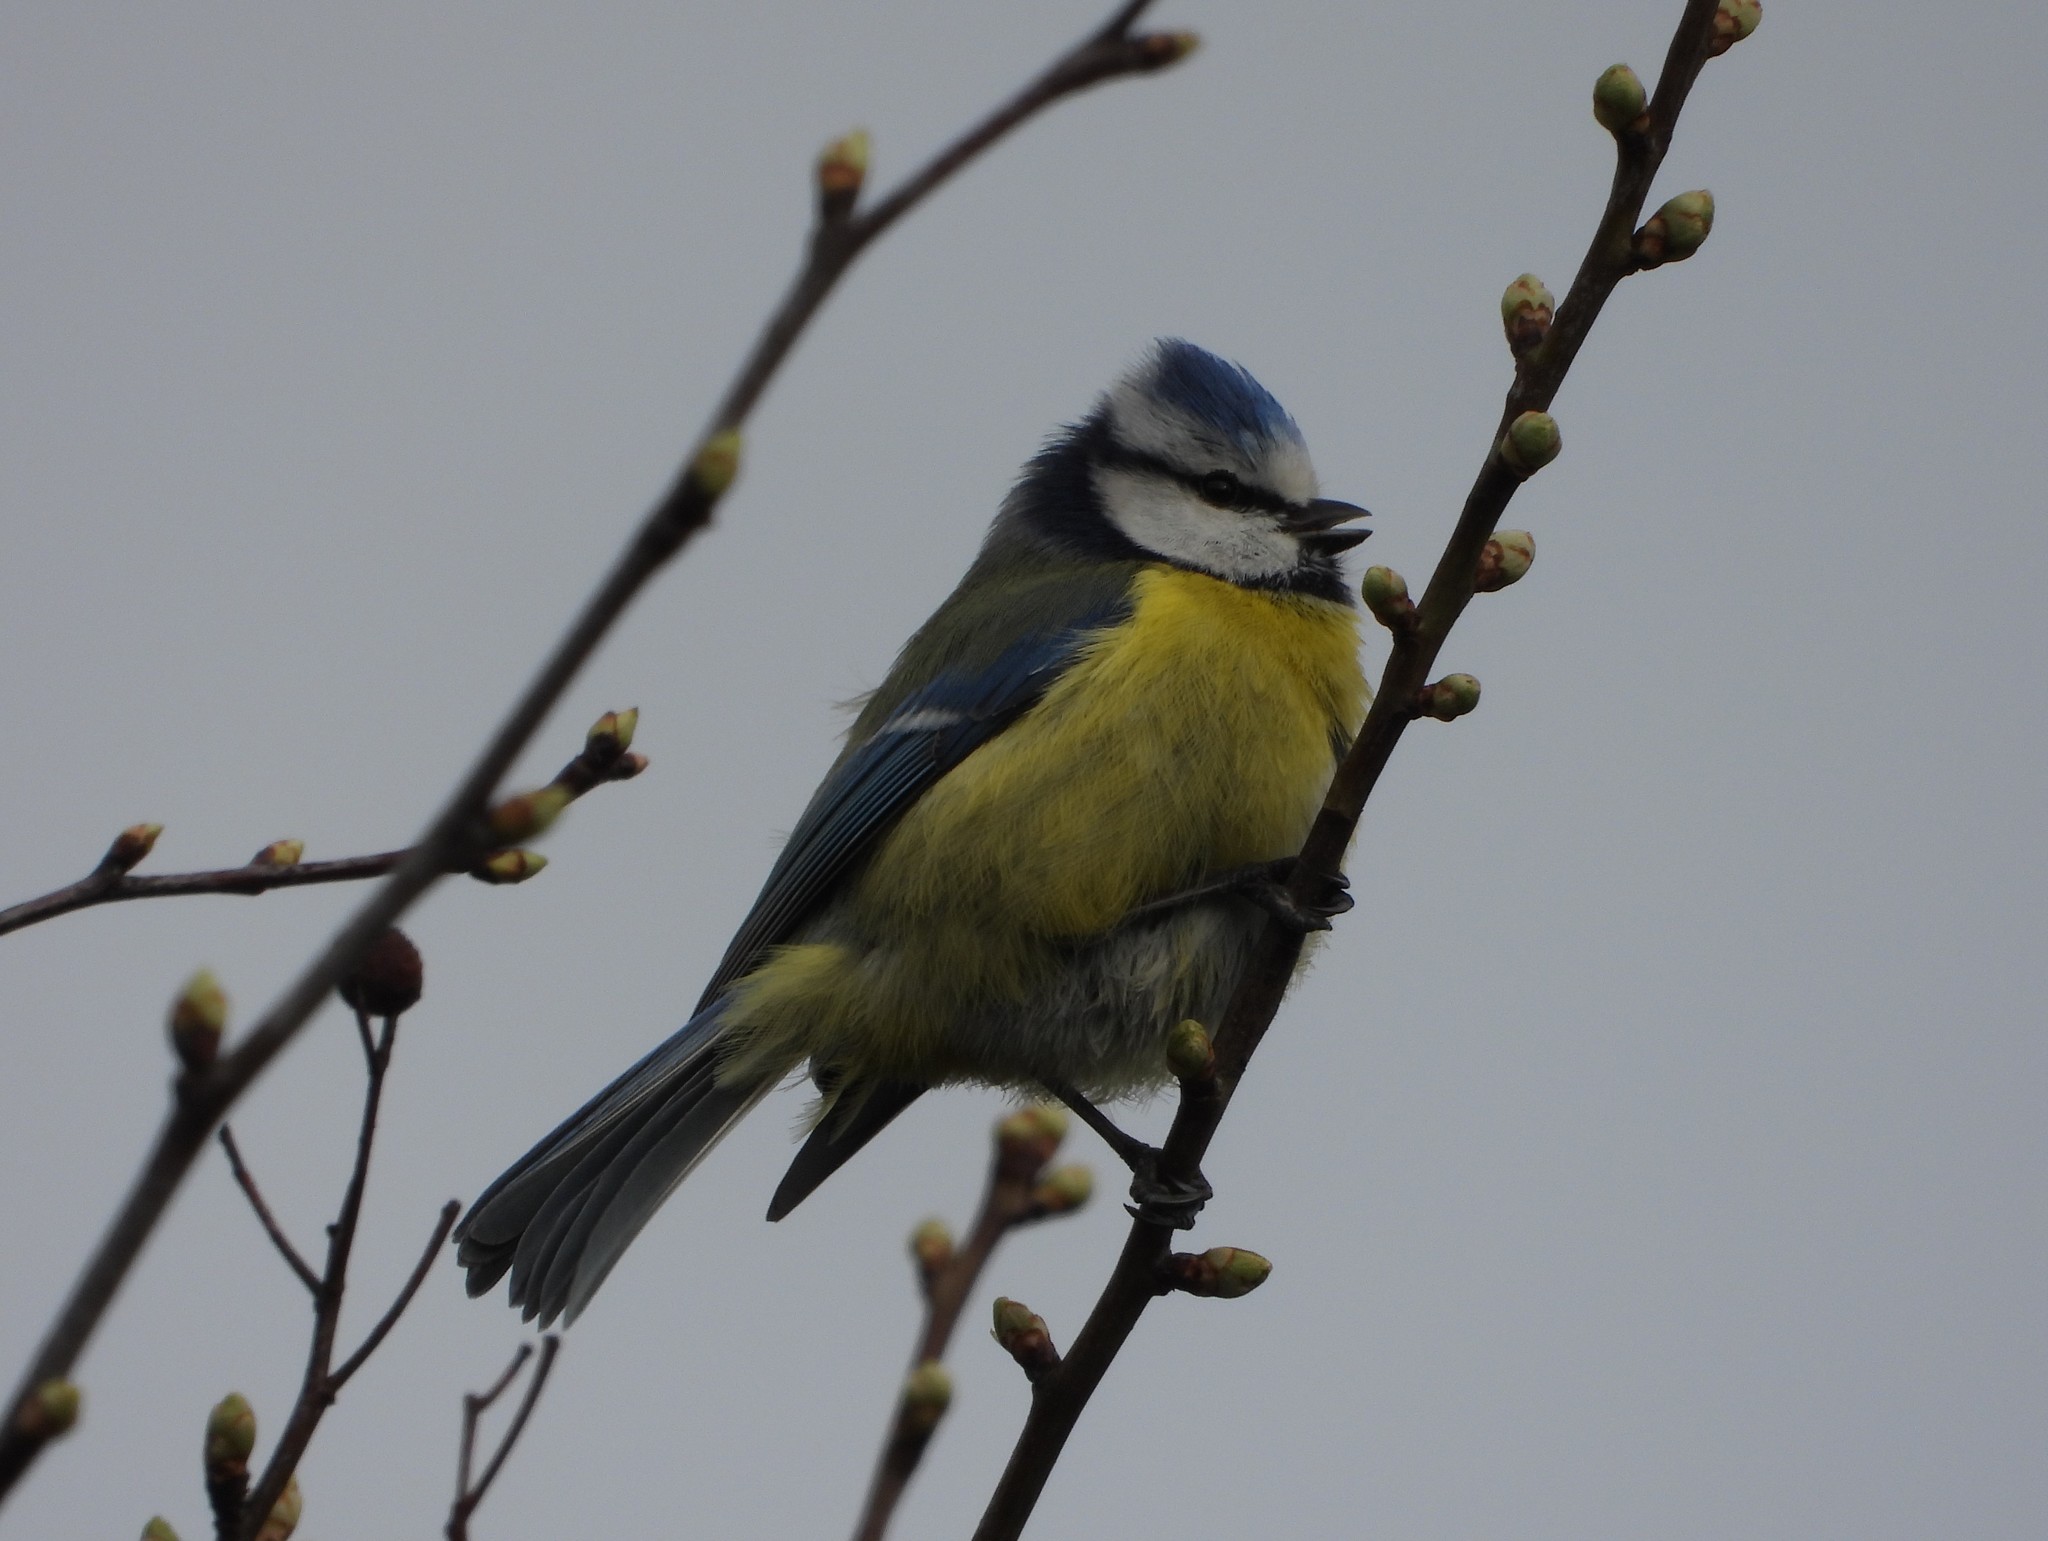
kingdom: Animalia
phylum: Chordata
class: Aves
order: Passeriformes
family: Paridae
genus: Cyanistes
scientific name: Cyanistes caeruleus
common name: Eurasian blue tit
